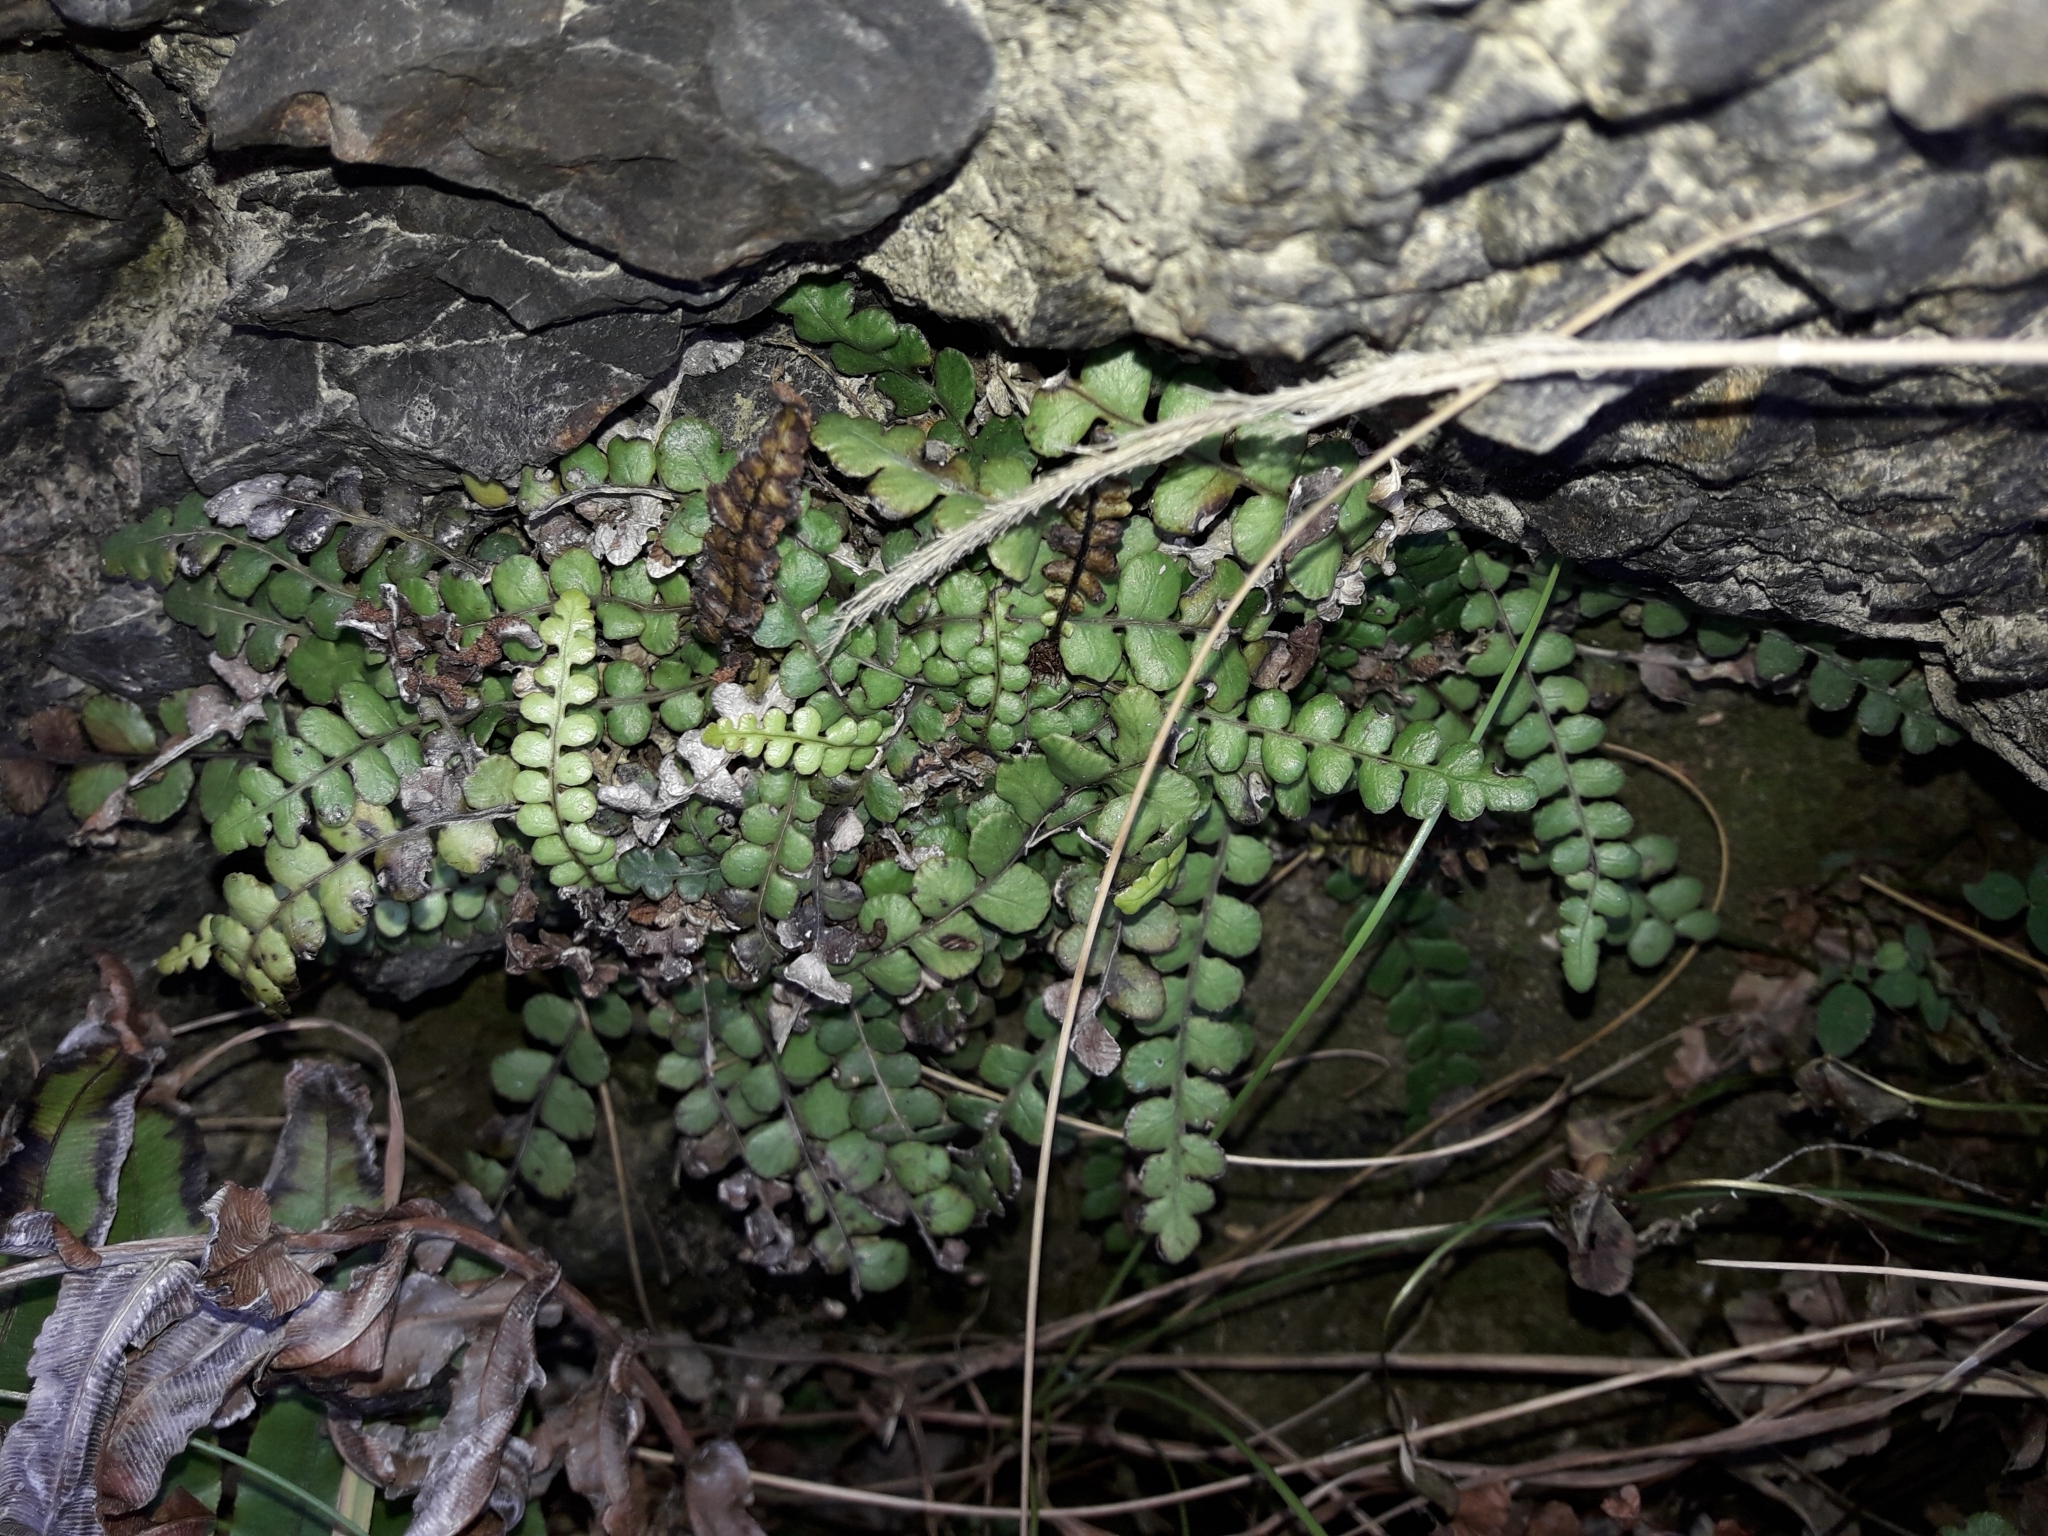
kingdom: Plantae
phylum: Tracheophyta
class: Polypodiopsida
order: Polypodiales
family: Blechnaceae
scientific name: Blechnaceae
